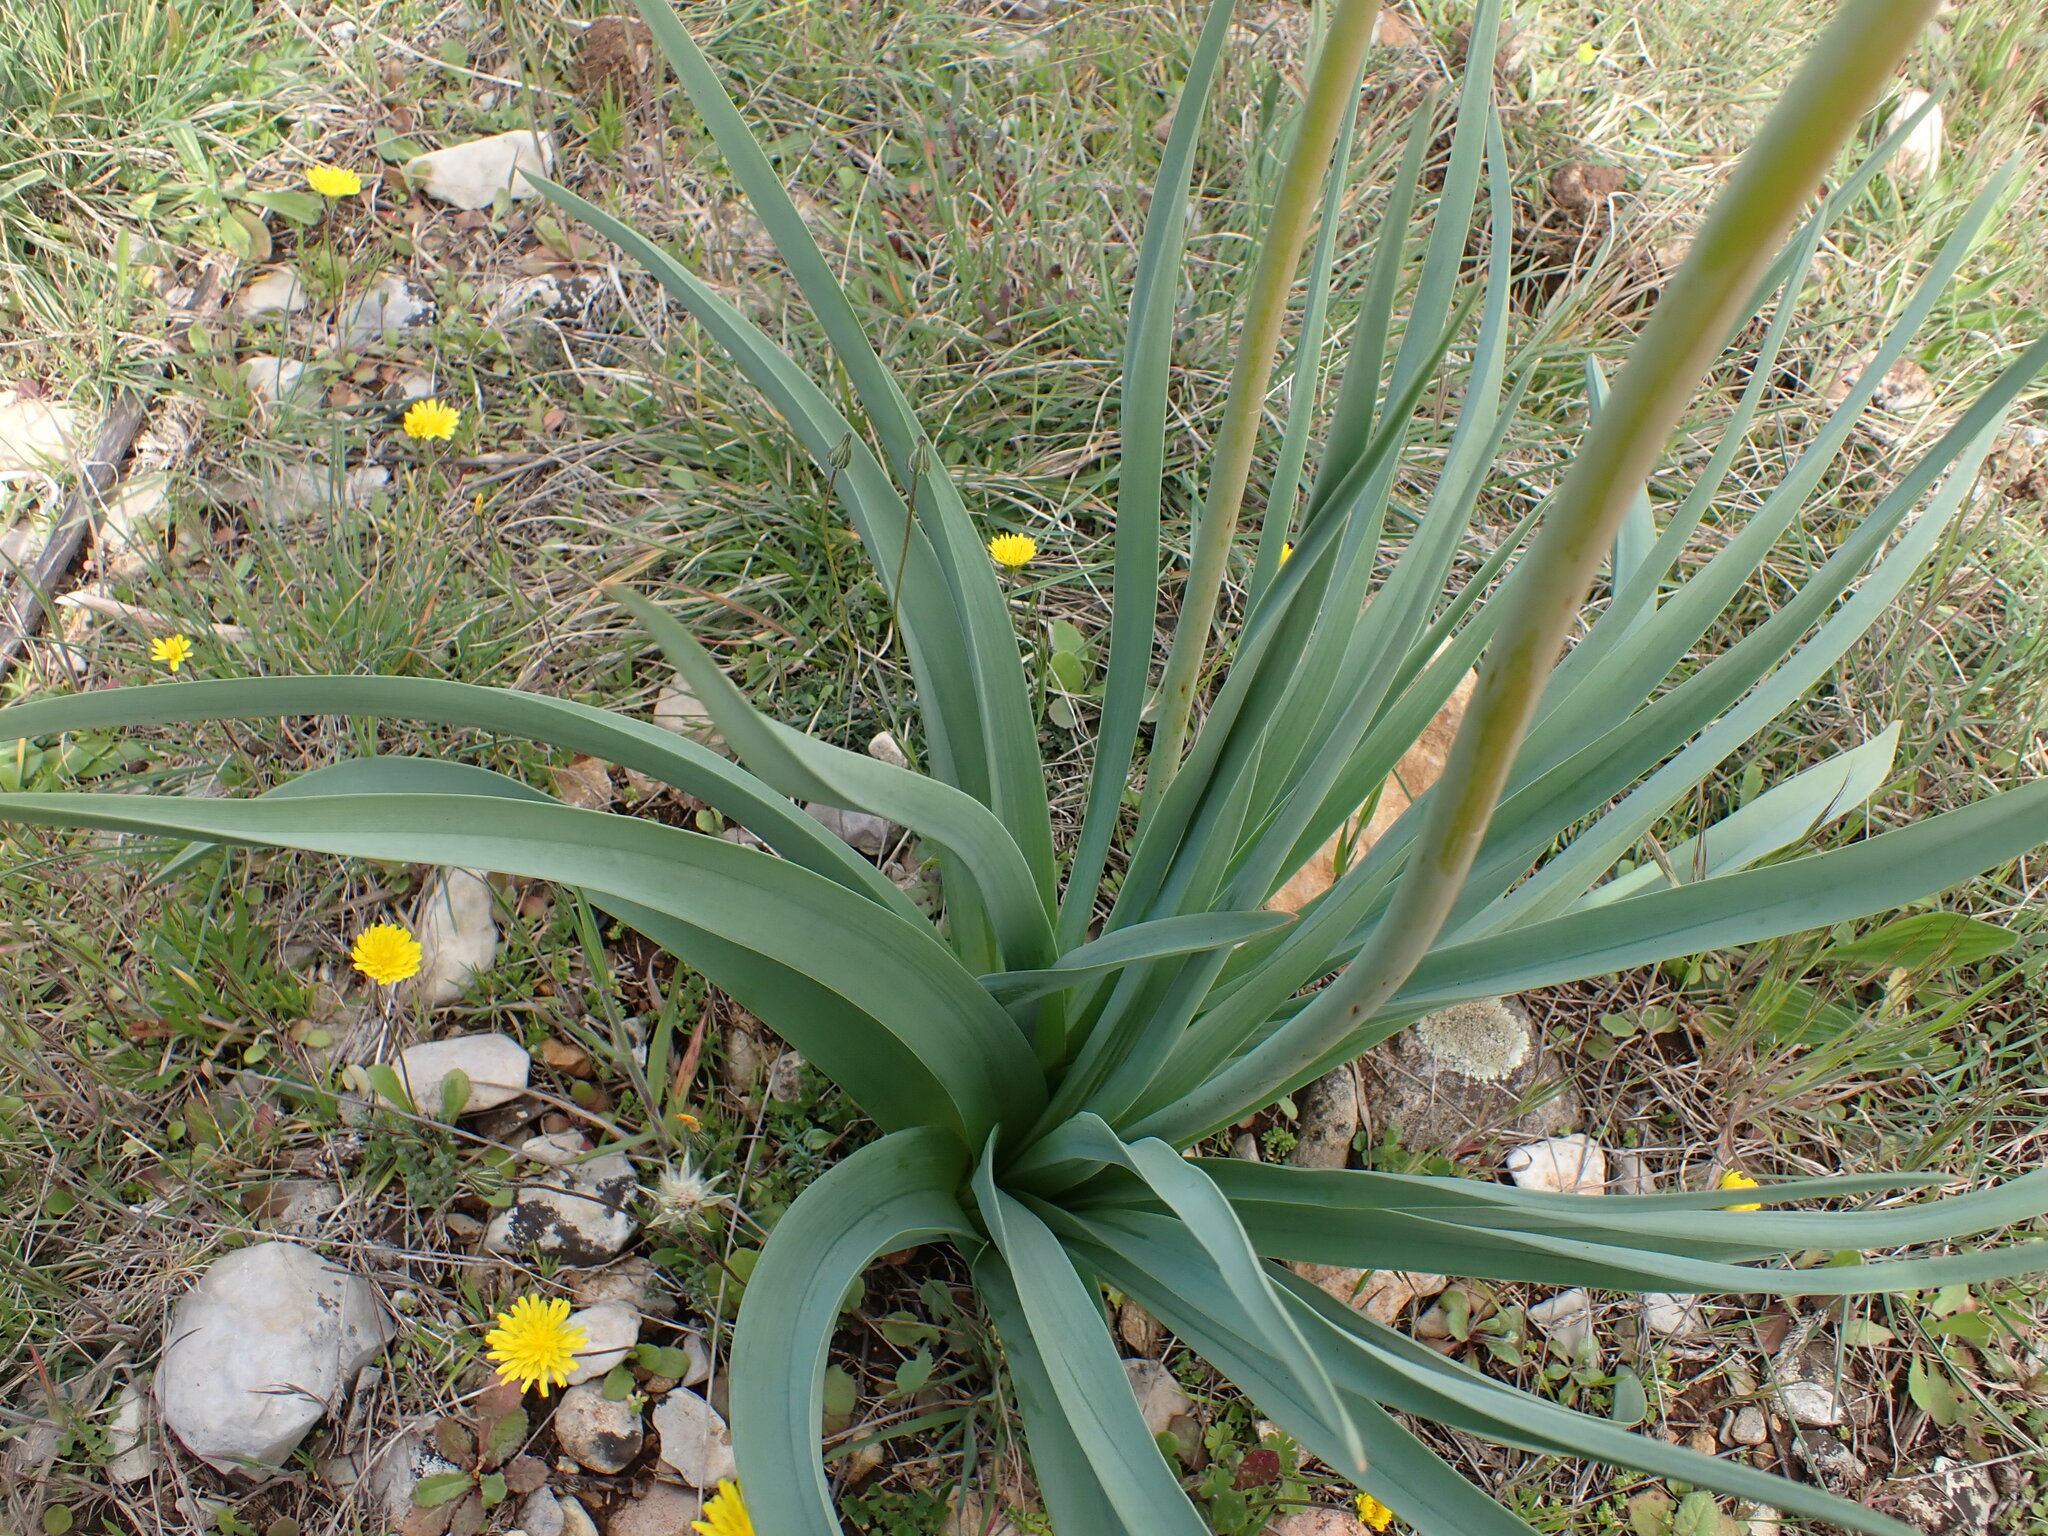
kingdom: Plantae
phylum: Tracheophyta
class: Liliopsida
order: Asparagales
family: Asphodelaceae
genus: Asphodelus
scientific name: Asphodelus cerasifer
